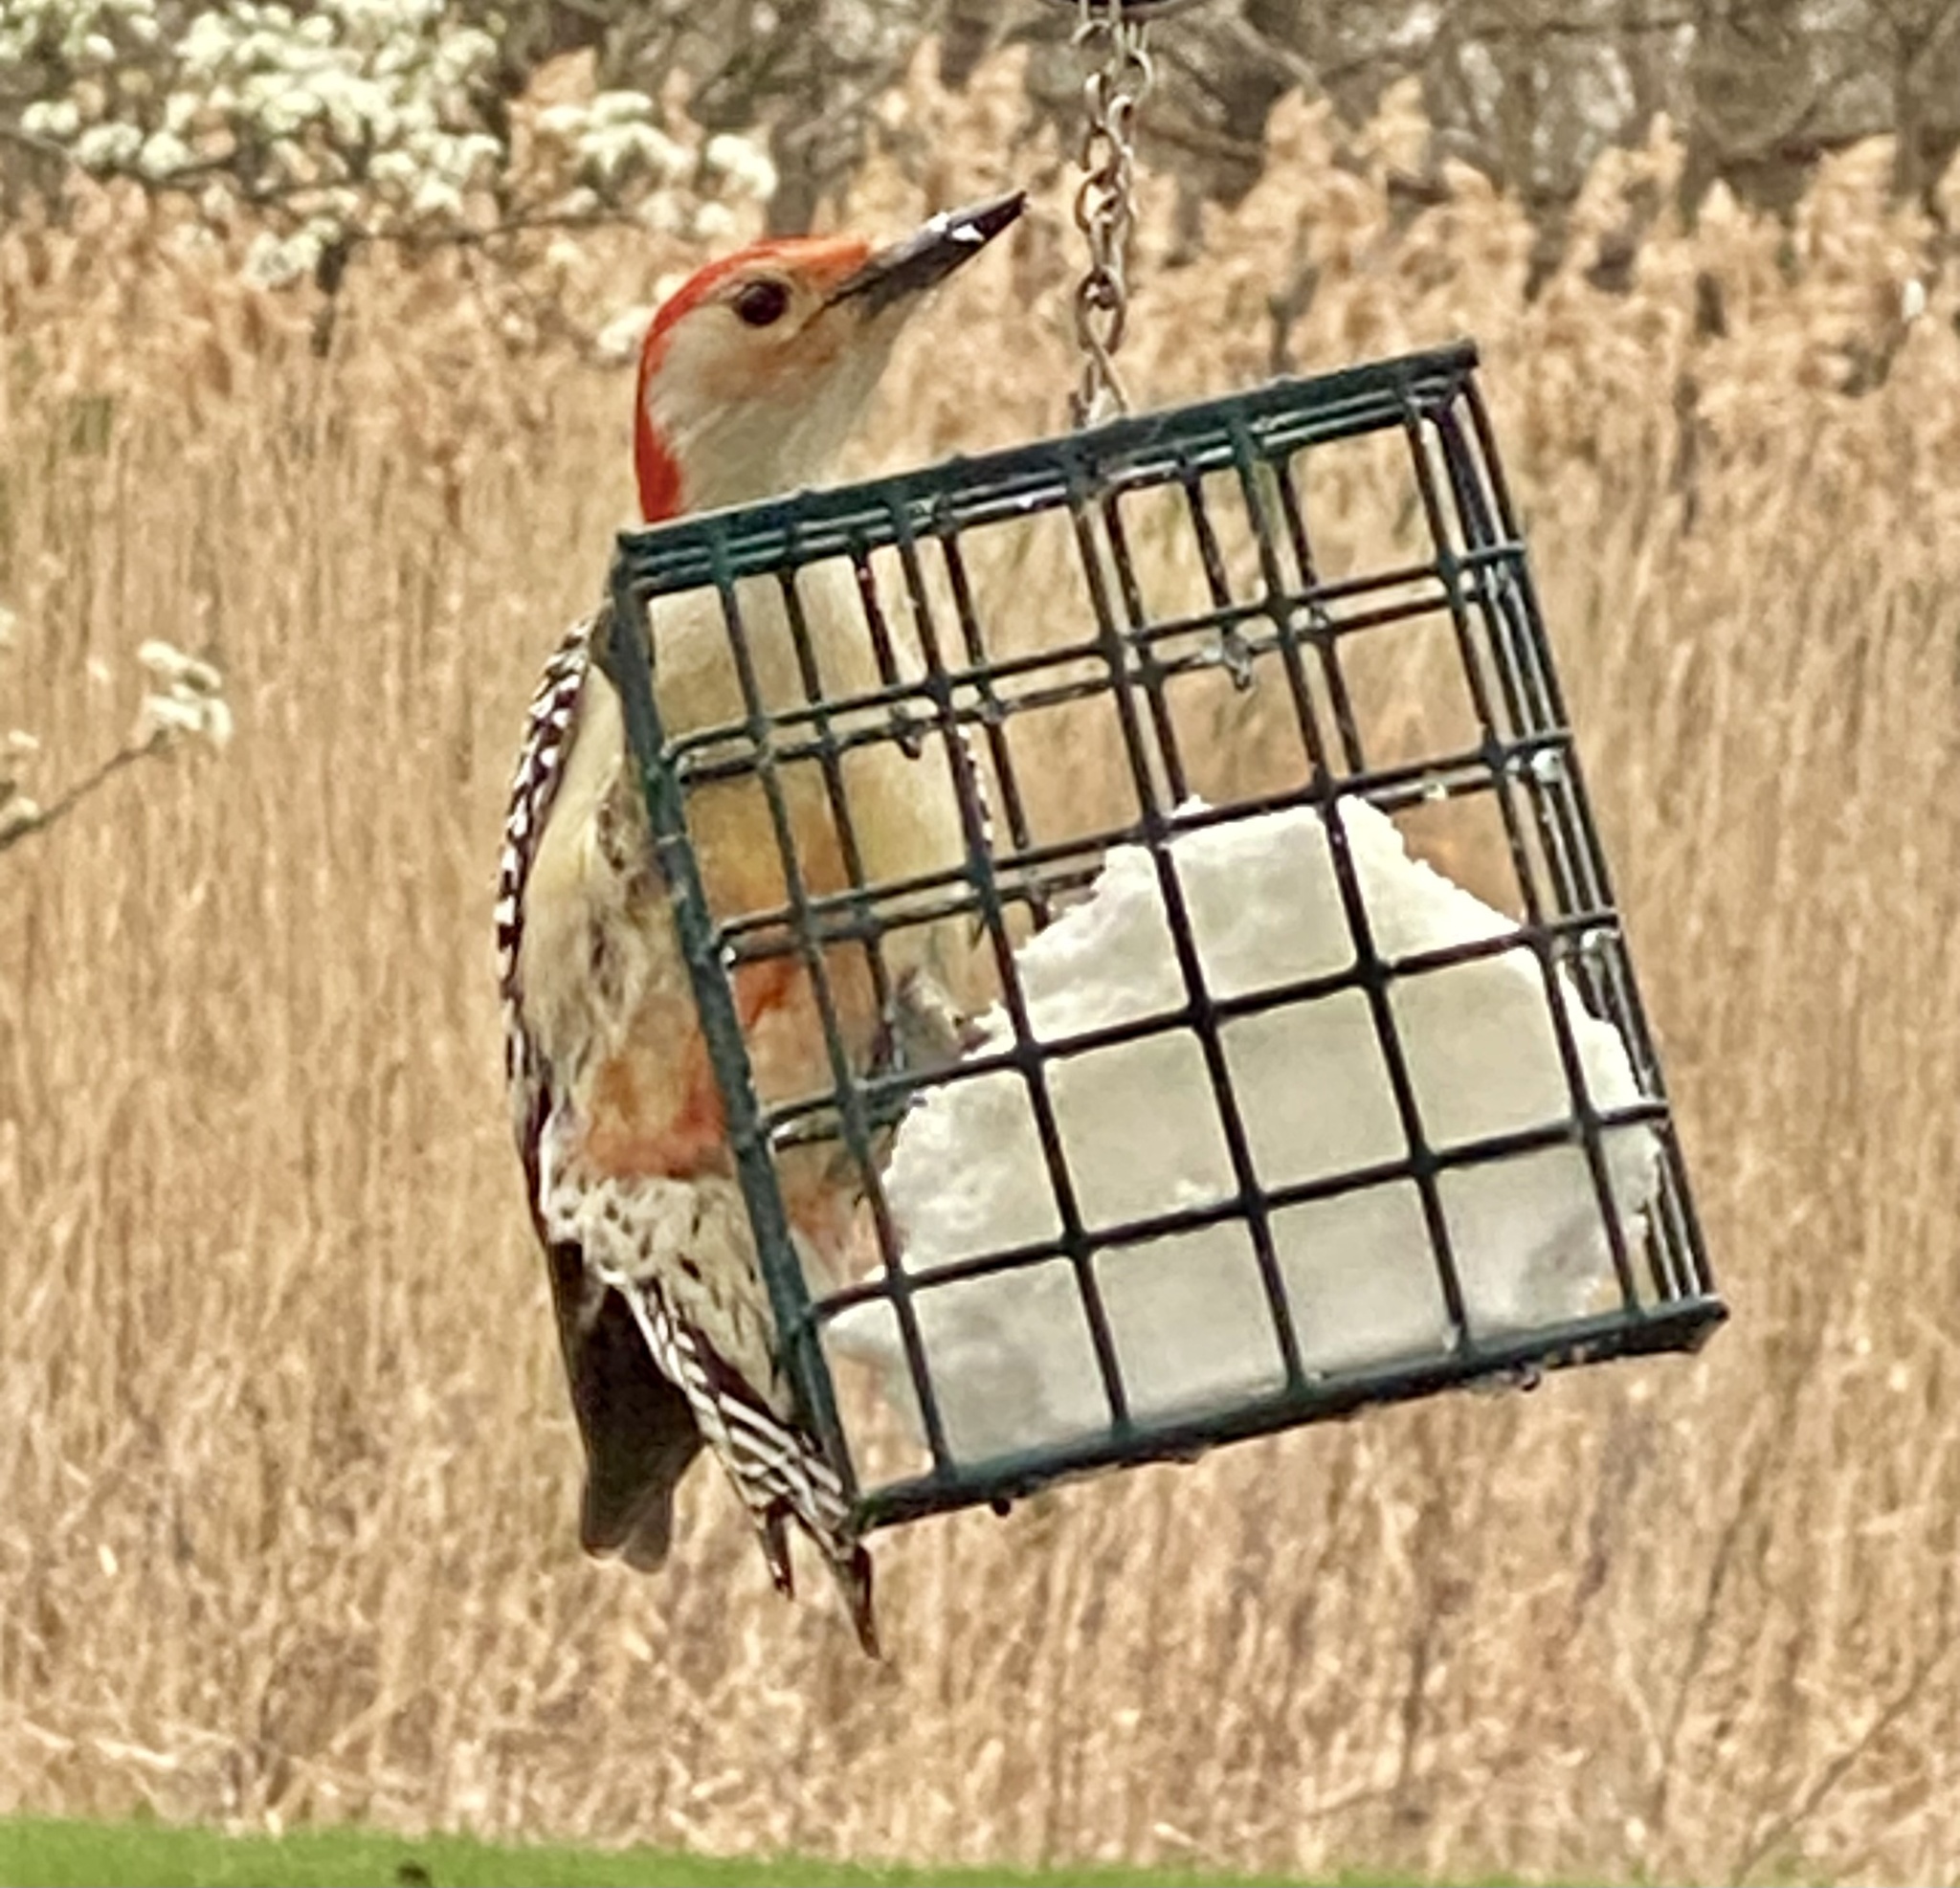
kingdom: Animalia
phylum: Chordata
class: Aves
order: Piciformes
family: Picidae
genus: Melanerpes
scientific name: Melanerpes carolinus
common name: Red-bellied woodpecker
